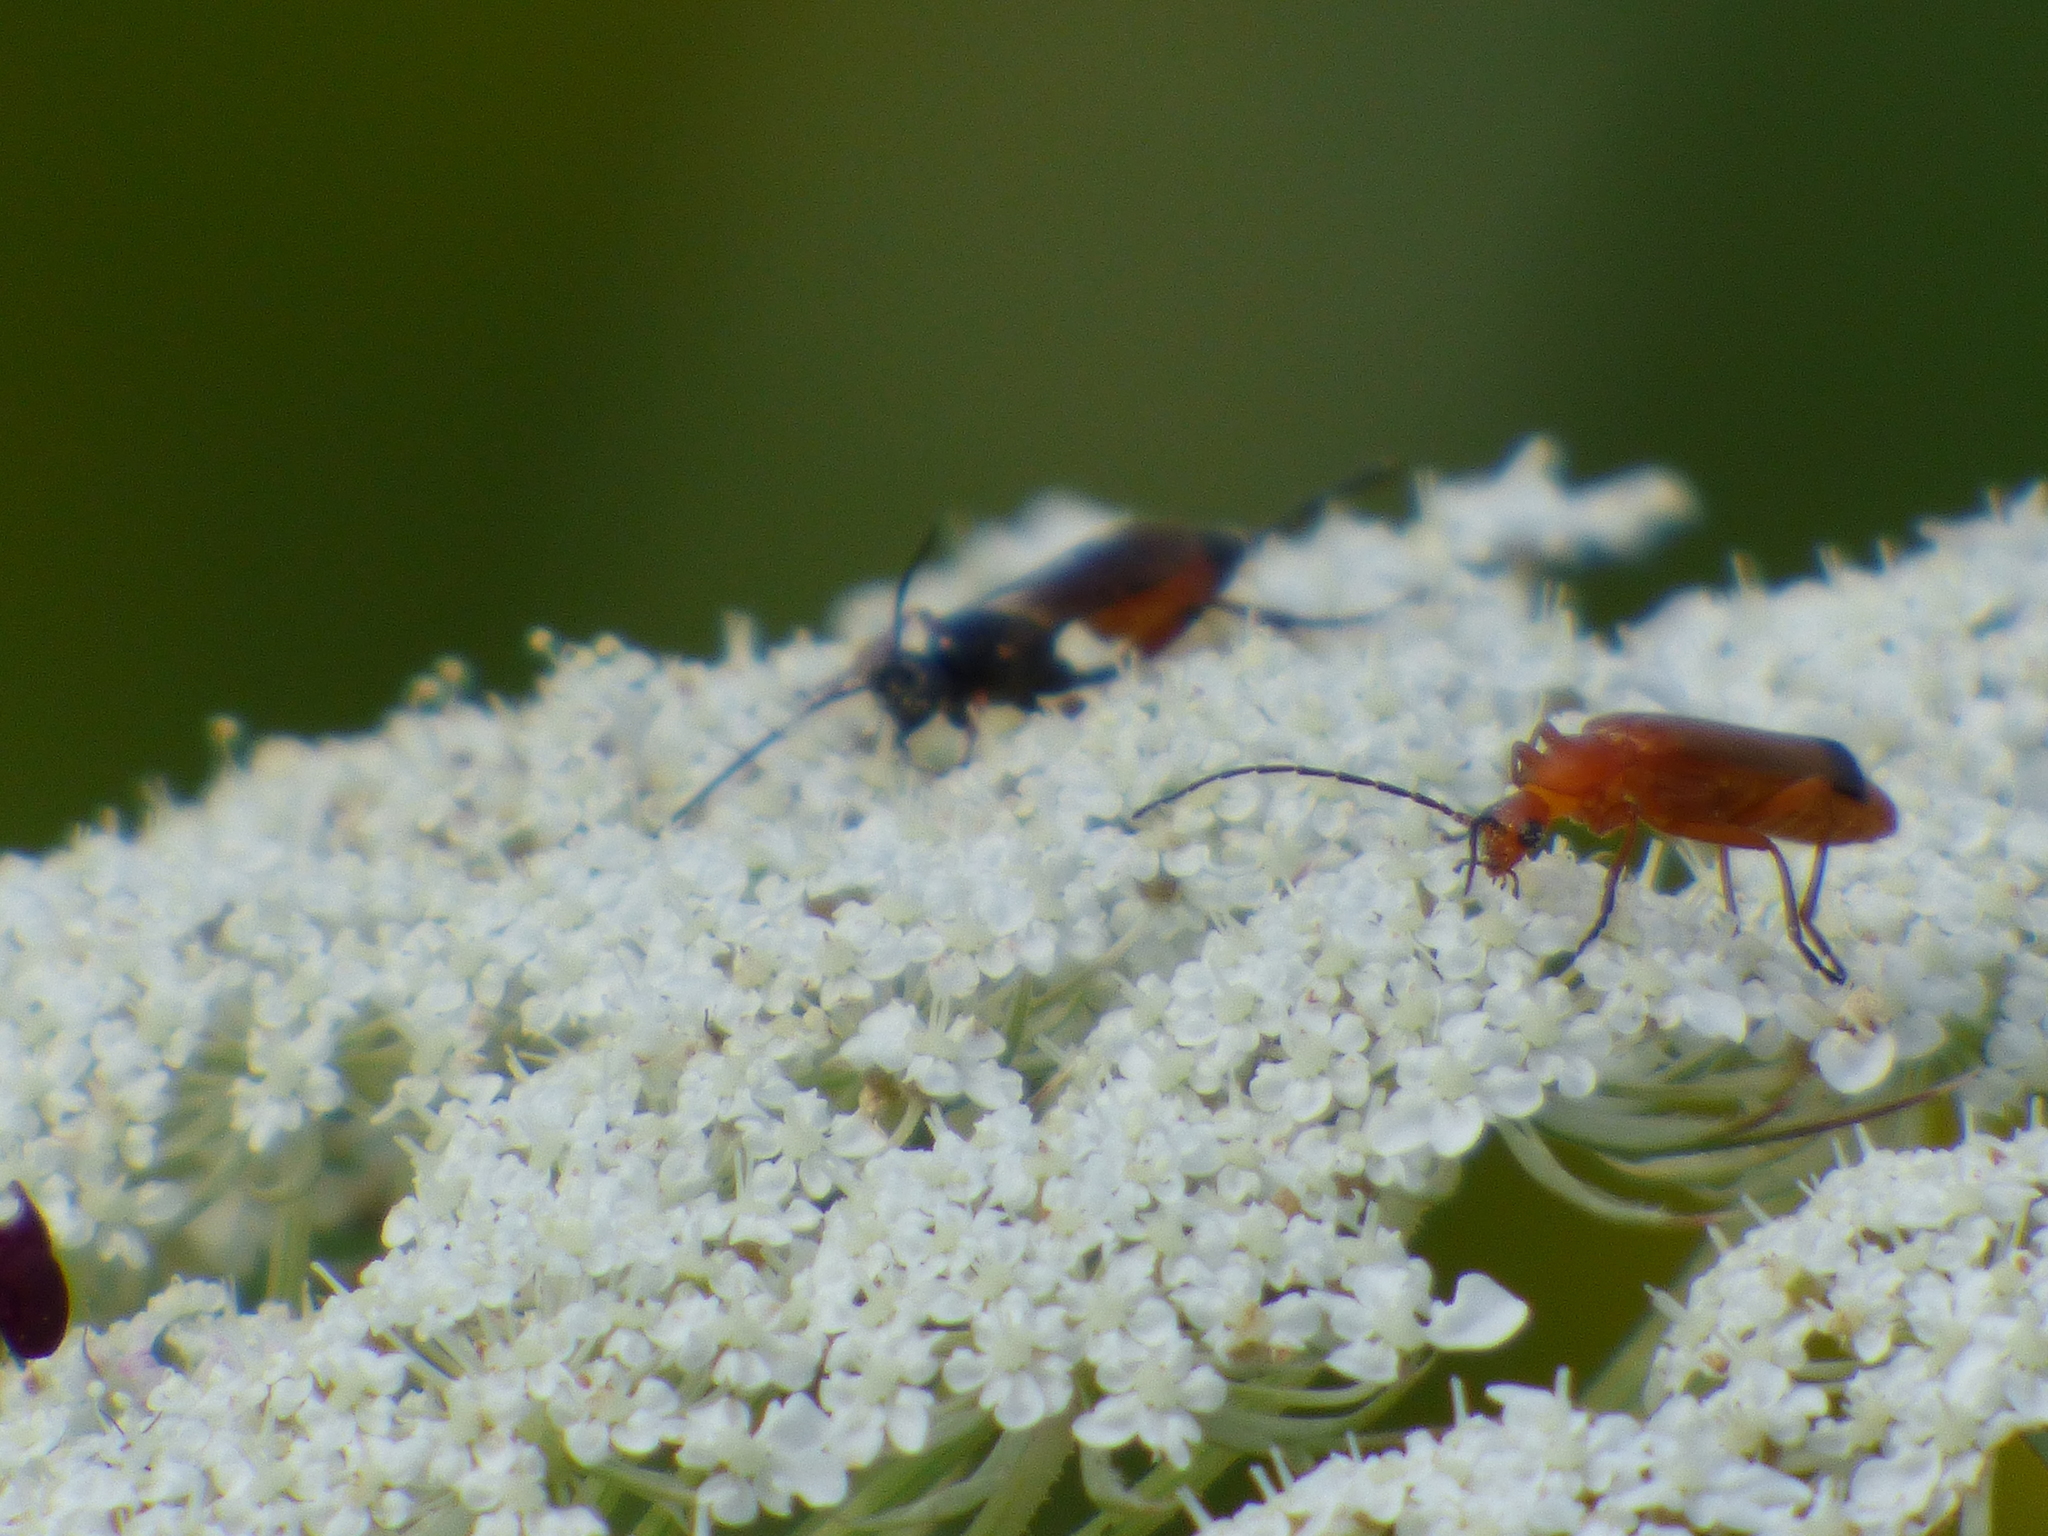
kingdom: Animalia
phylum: Arthropoda
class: Insecta
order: Coleoptera
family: Cantharidae
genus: Rhagonycha
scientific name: Rhagonycha fulva
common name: Common red soldier beetle
